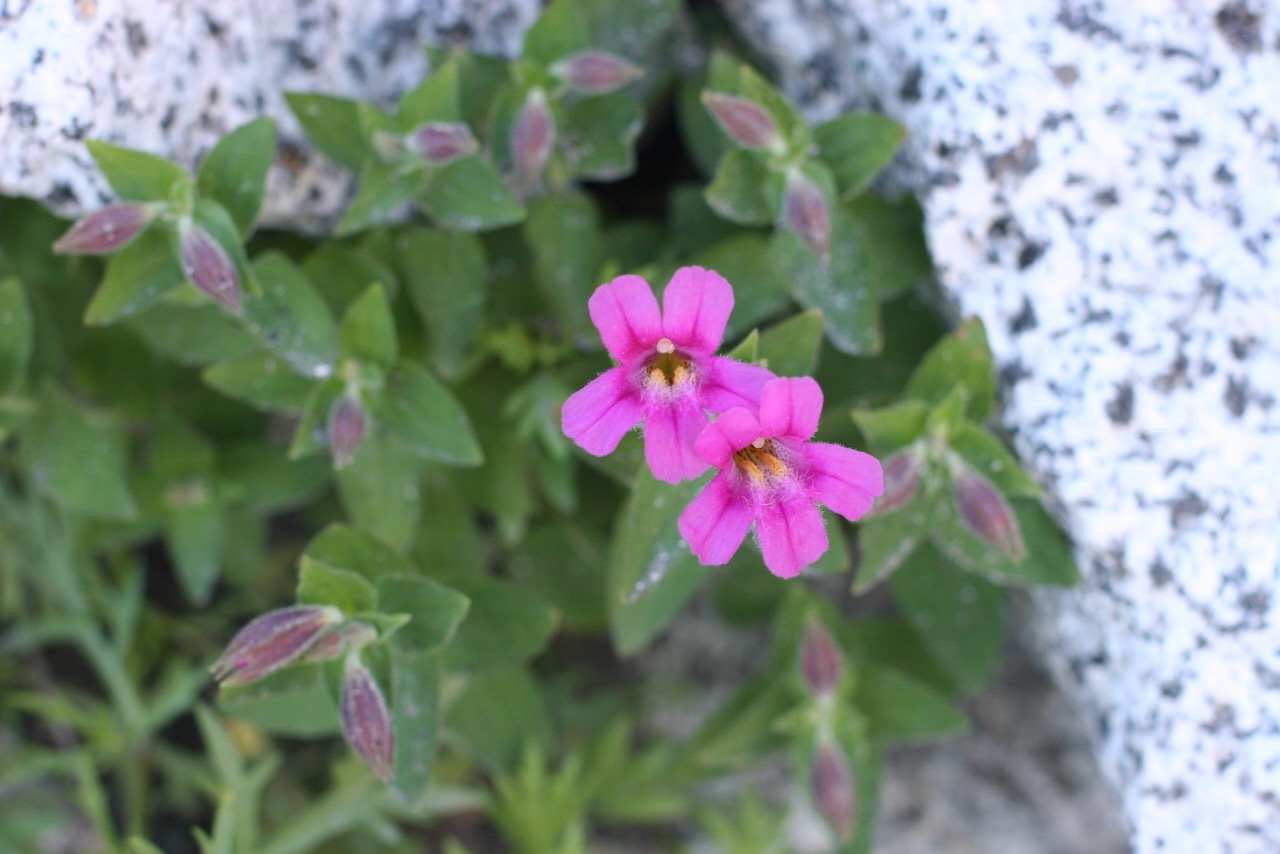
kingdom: Plantae
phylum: Tracheophyta
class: Magnoliopsida
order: Lamiales
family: Phrymaceae
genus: Erythranthe
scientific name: Erythranthe lewisii
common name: Lewis's monkey-flower
